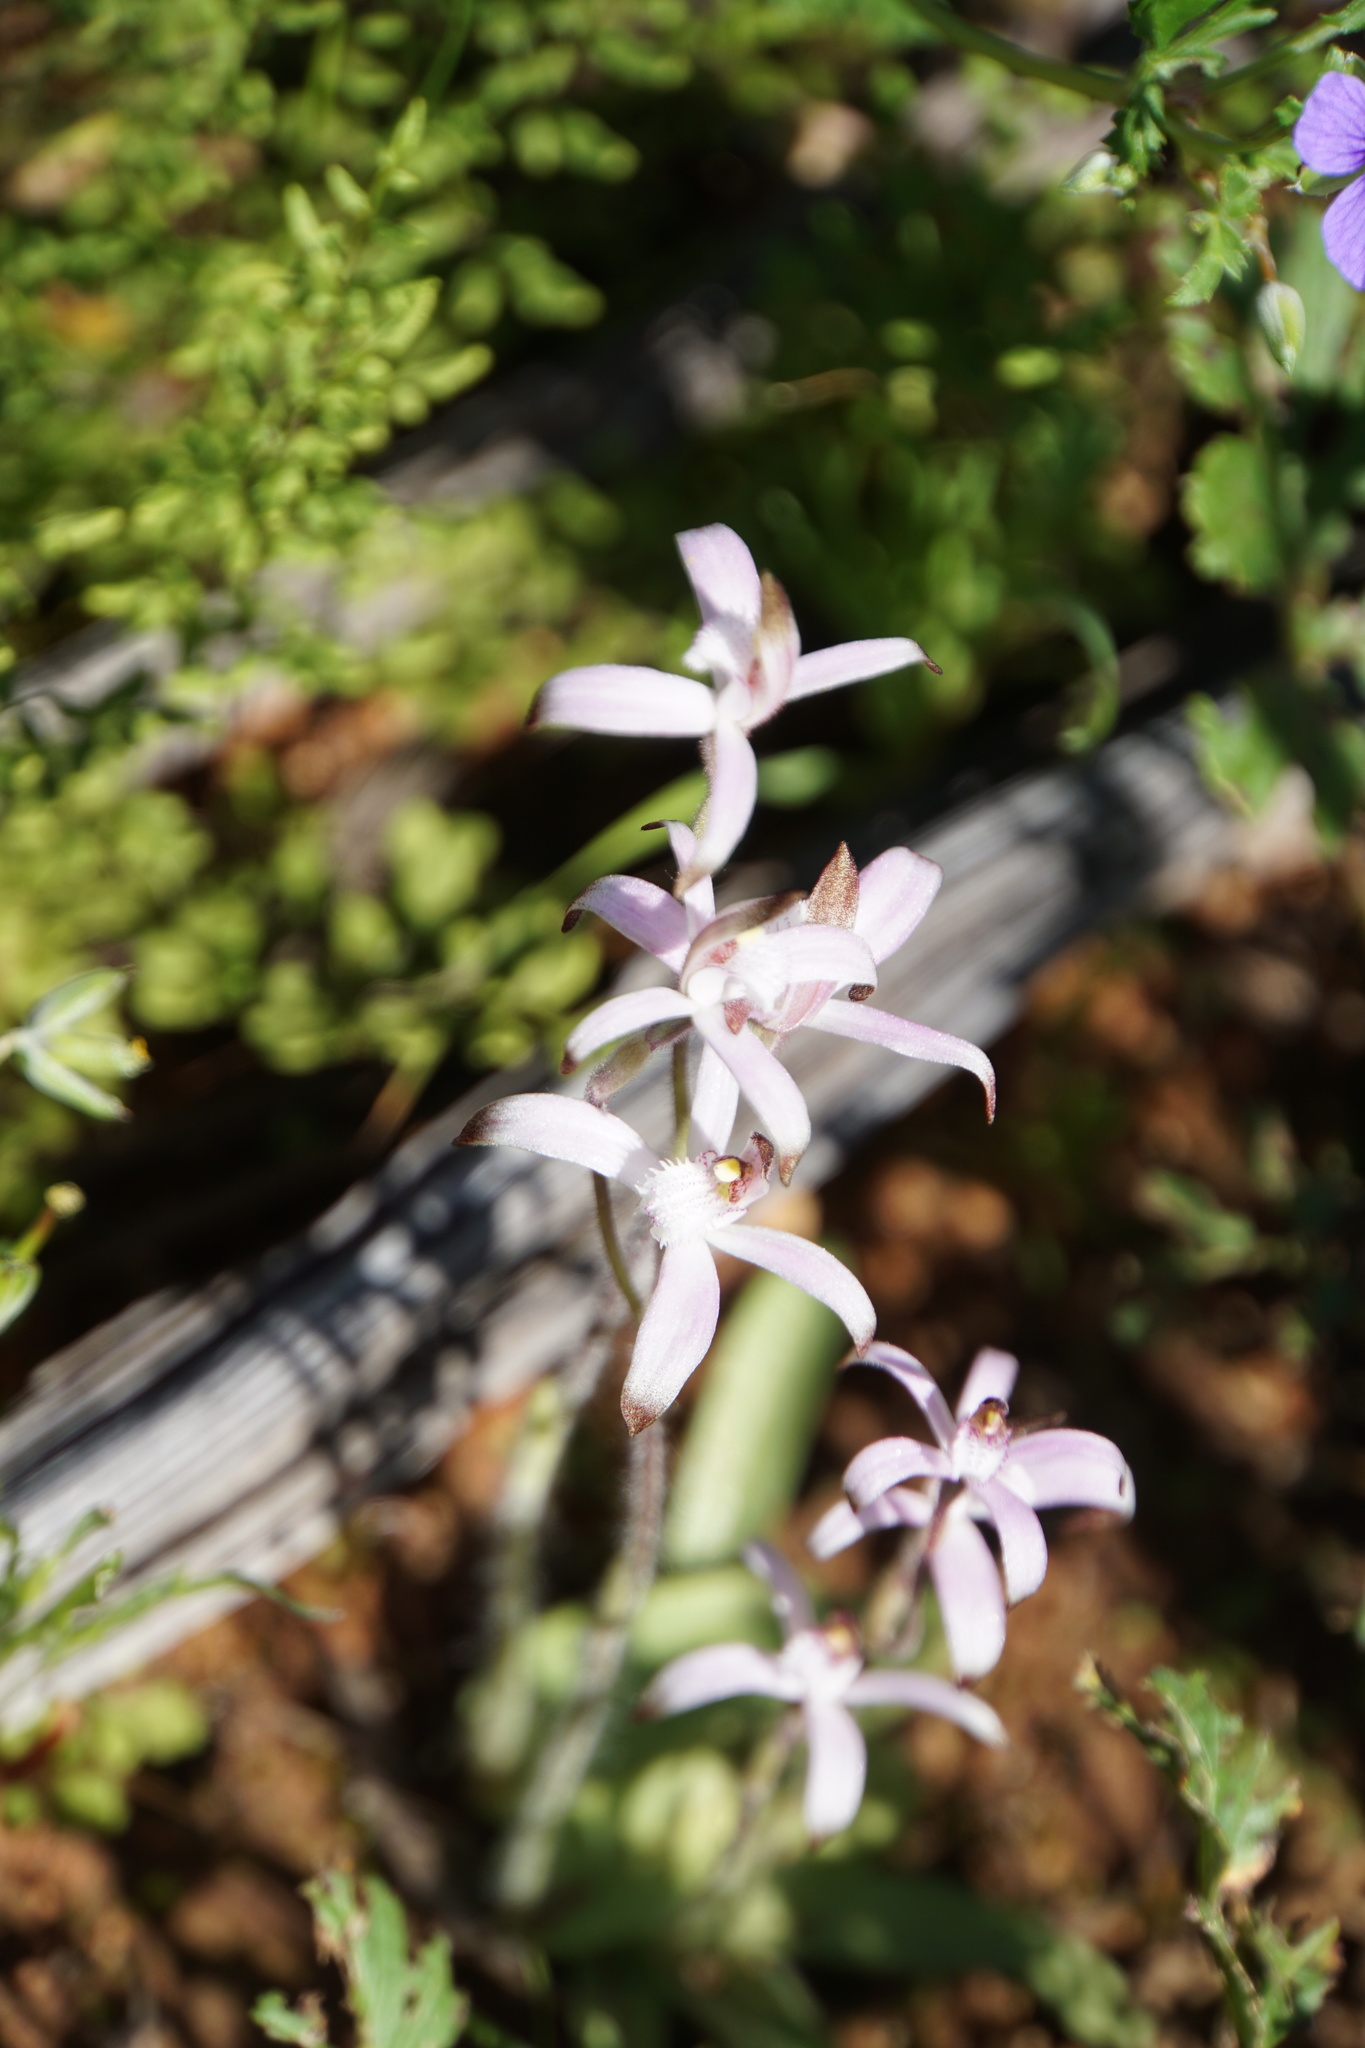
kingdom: Plantae
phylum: Tracheophyta
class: Liliopsida
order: Asparagales
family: Orchidaceae
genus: Caladenia
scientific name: Caladenia hirta
